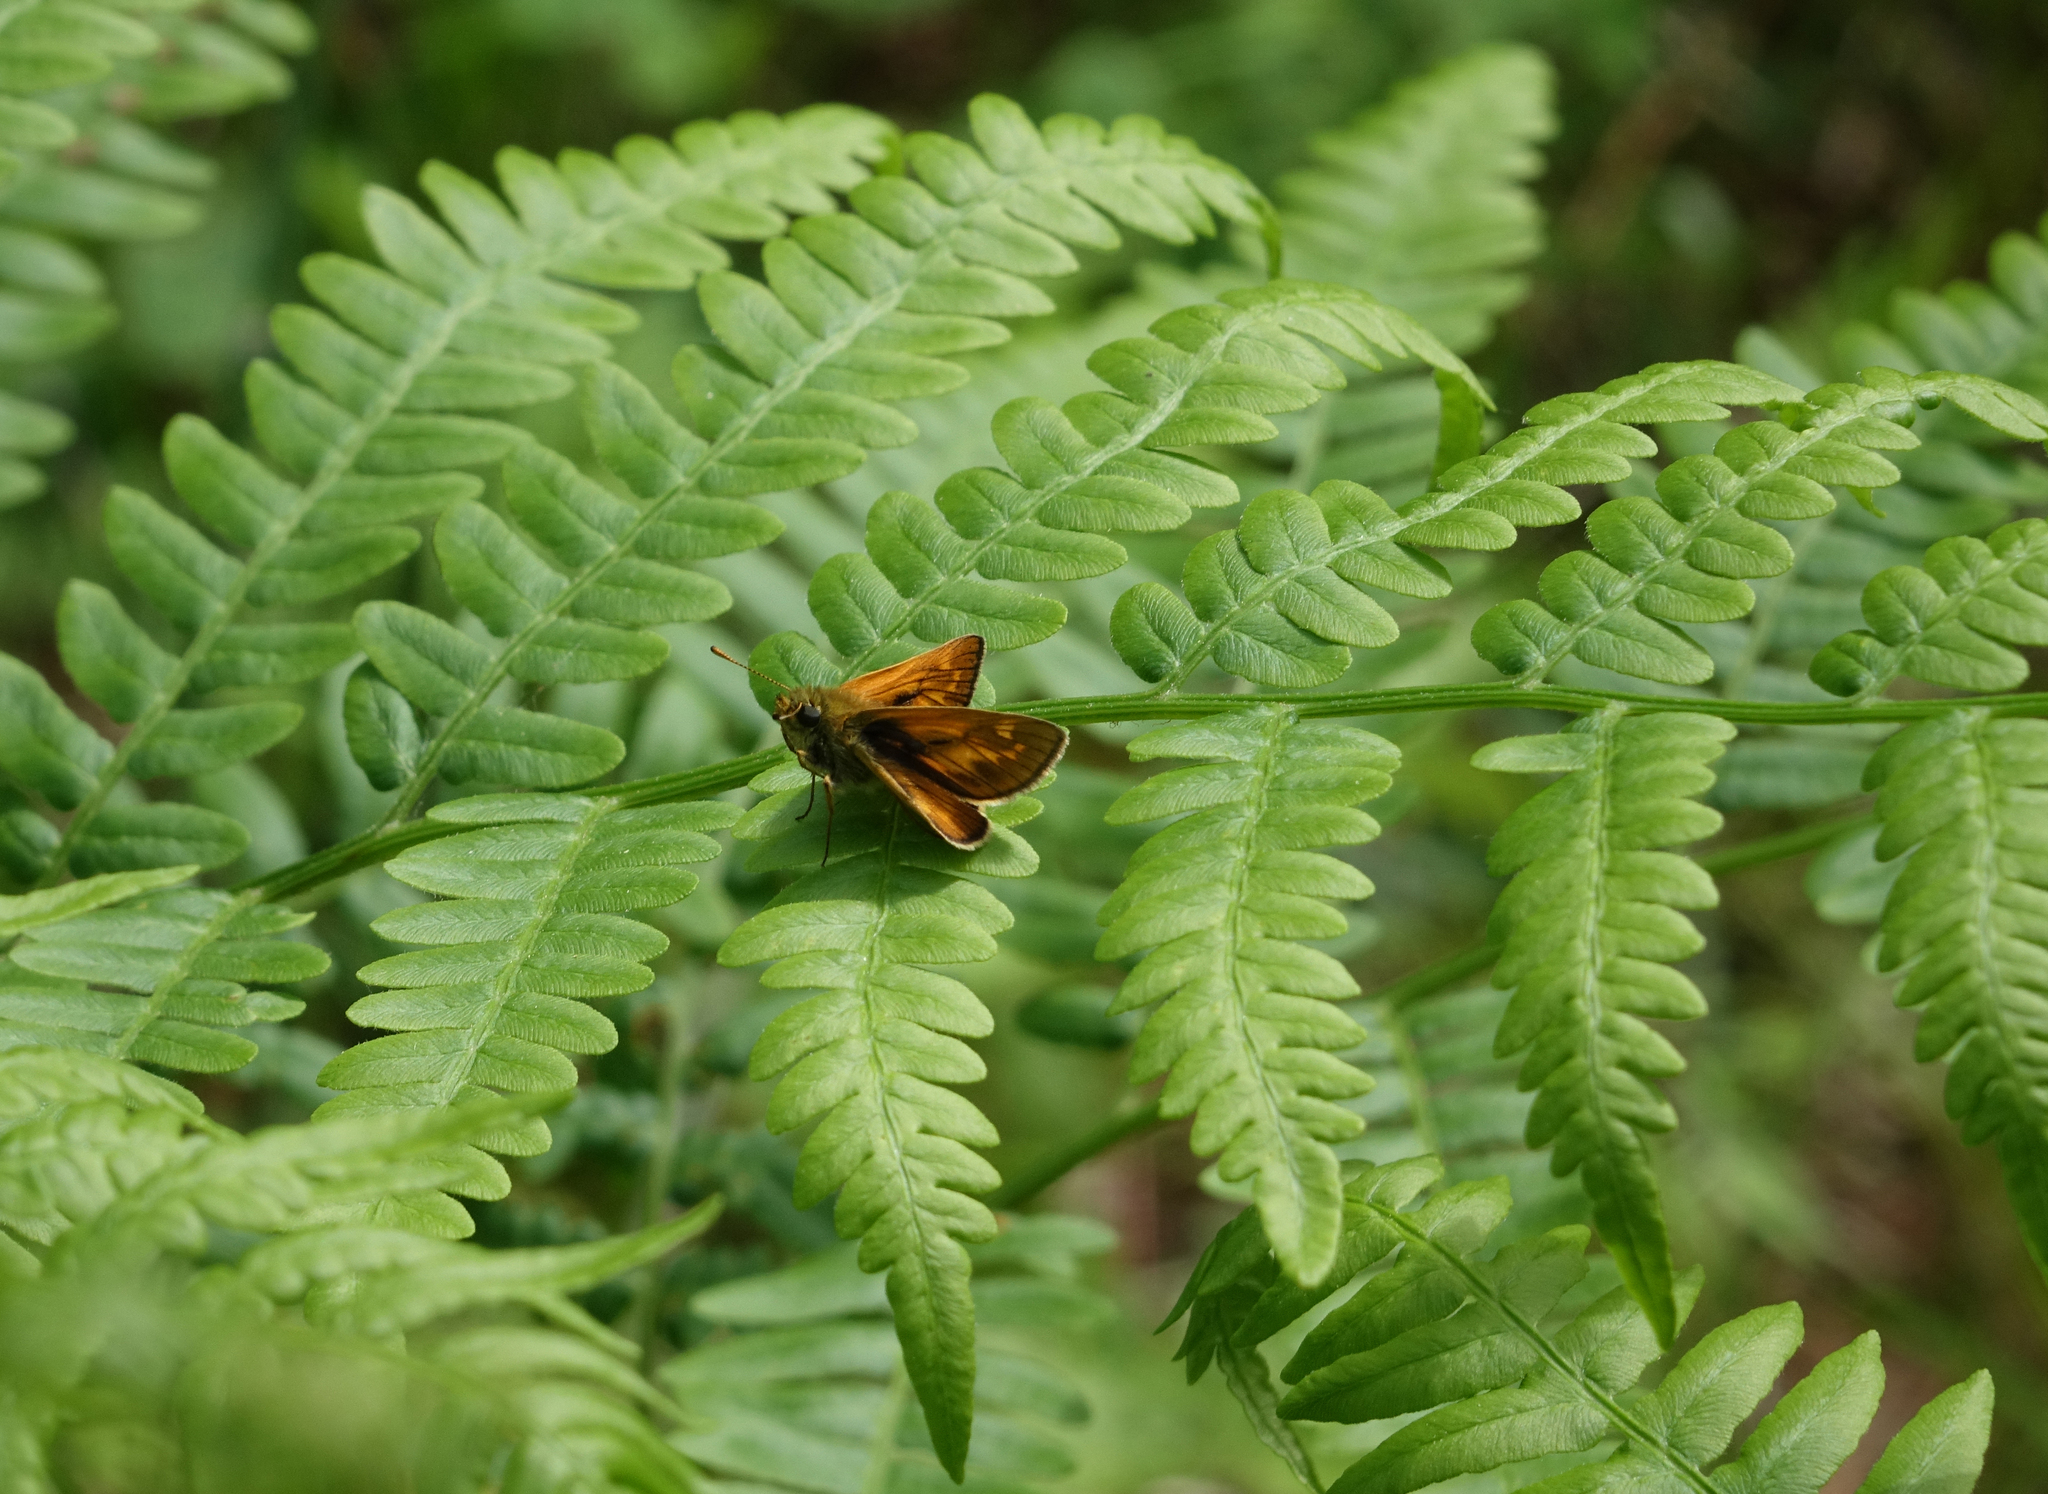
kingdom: Animalia
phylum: Arthropoda
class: Insecta
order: Lepidoptera
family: Hesperiidae
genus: Ochlodes
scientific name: Ochlodes venata
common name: Large skipper
